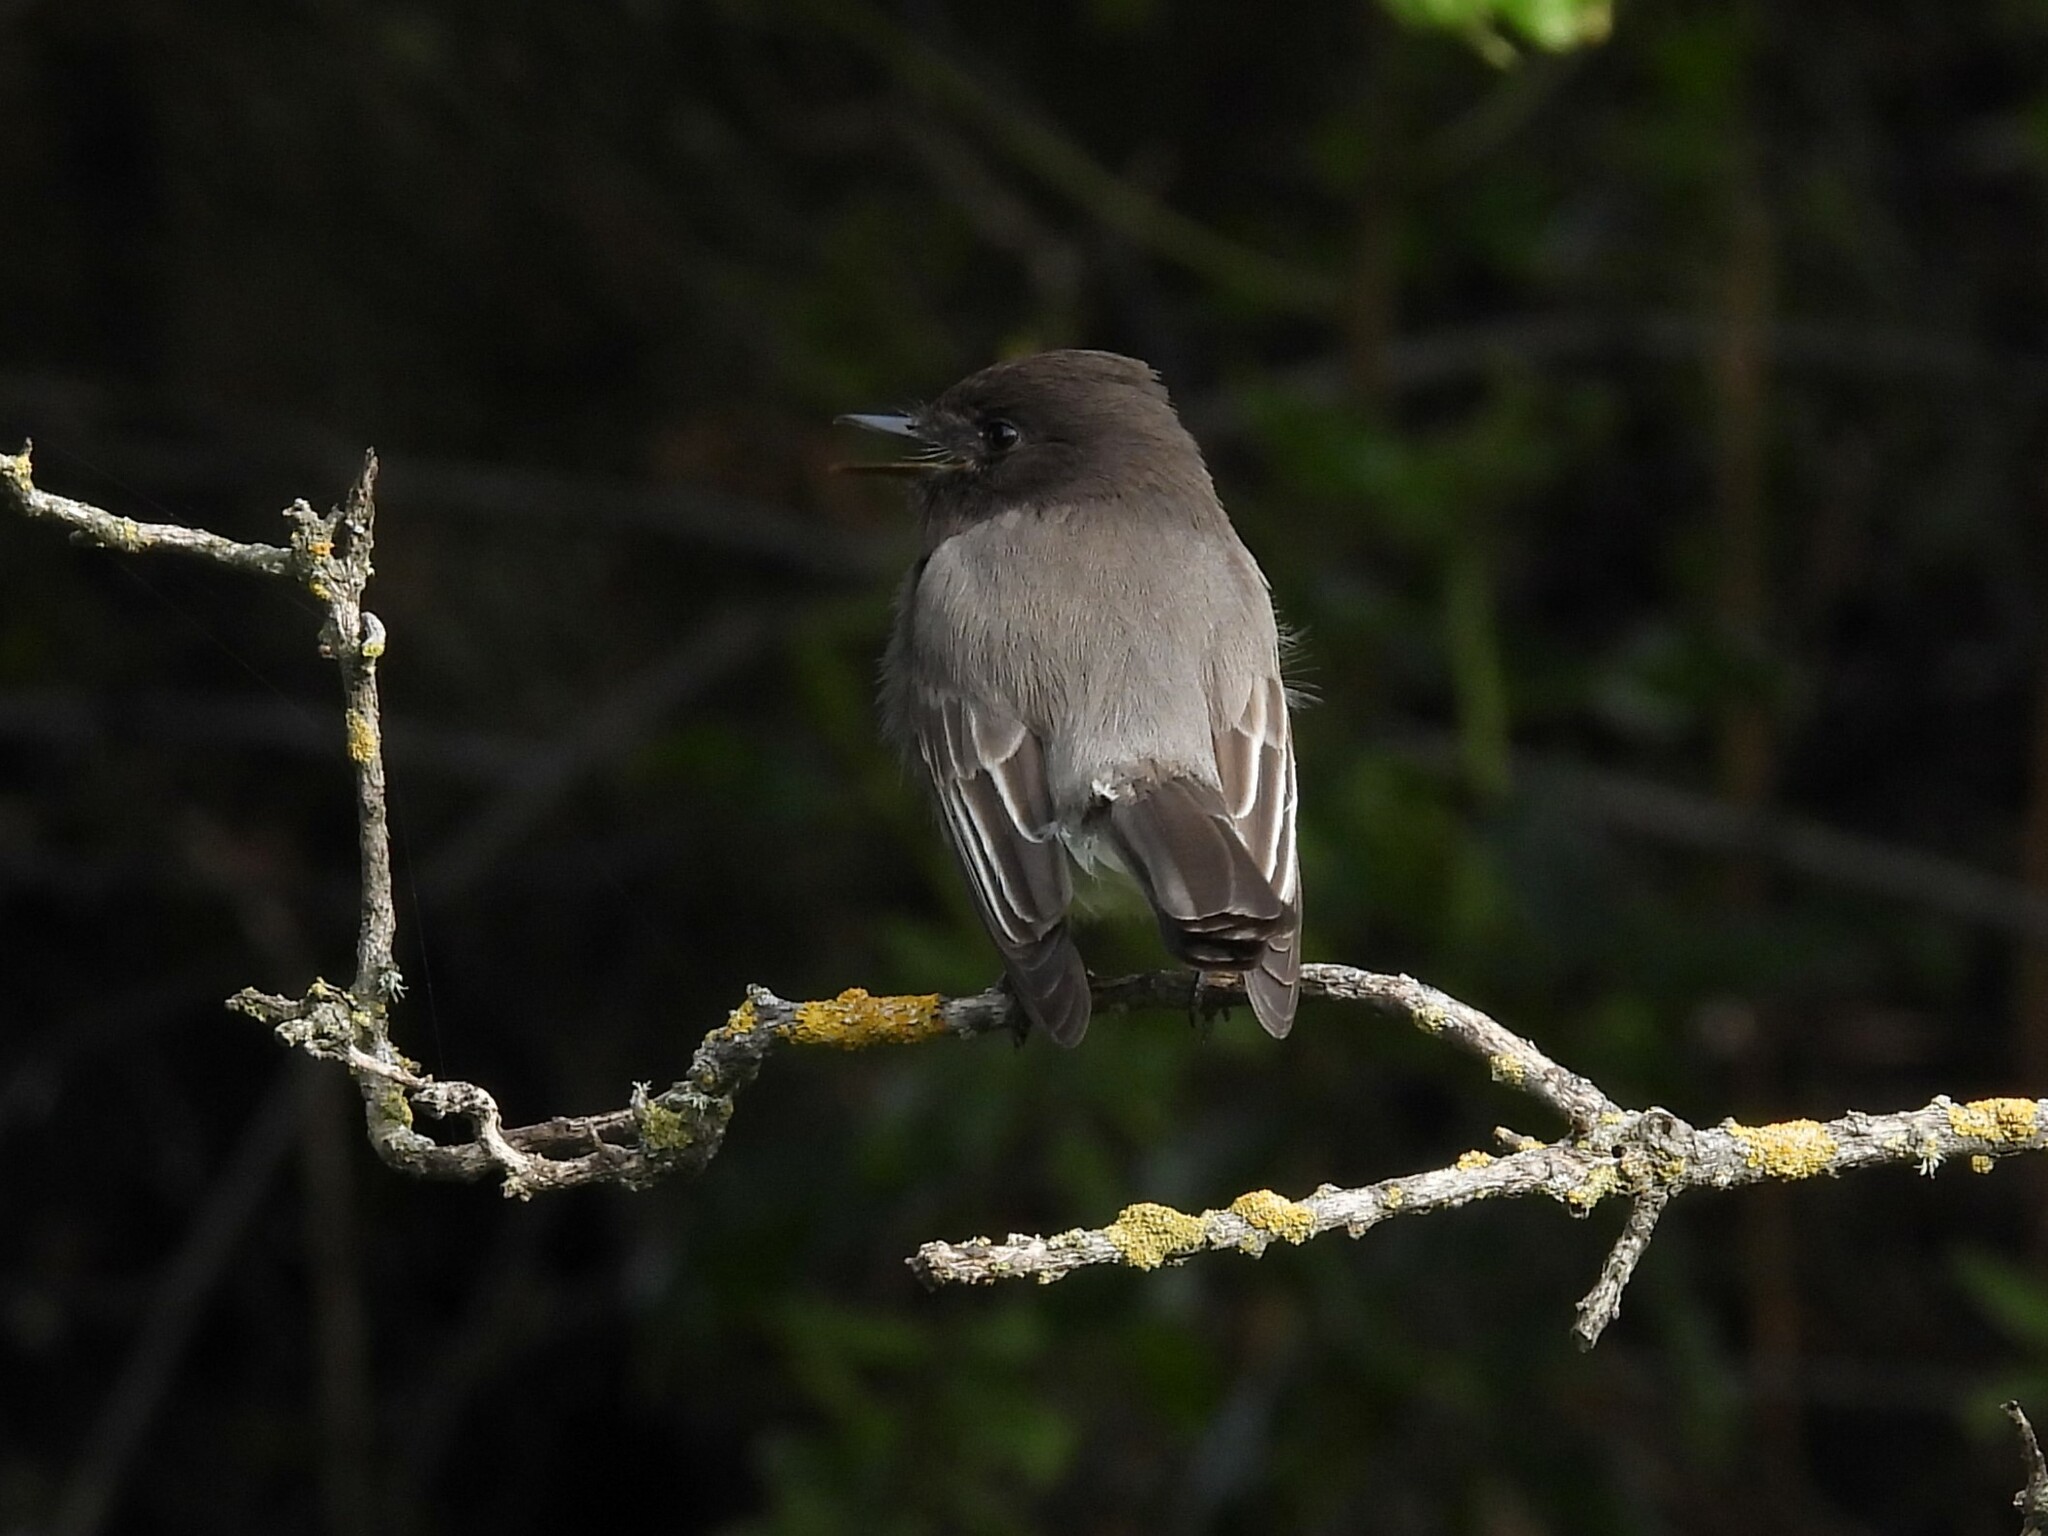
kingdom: Animalia
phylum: Chordata
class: Aves
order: Passeriformes
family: Tyrannidae
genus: Sayornis
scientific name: Sayornis nigricans
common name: Black phoebe
